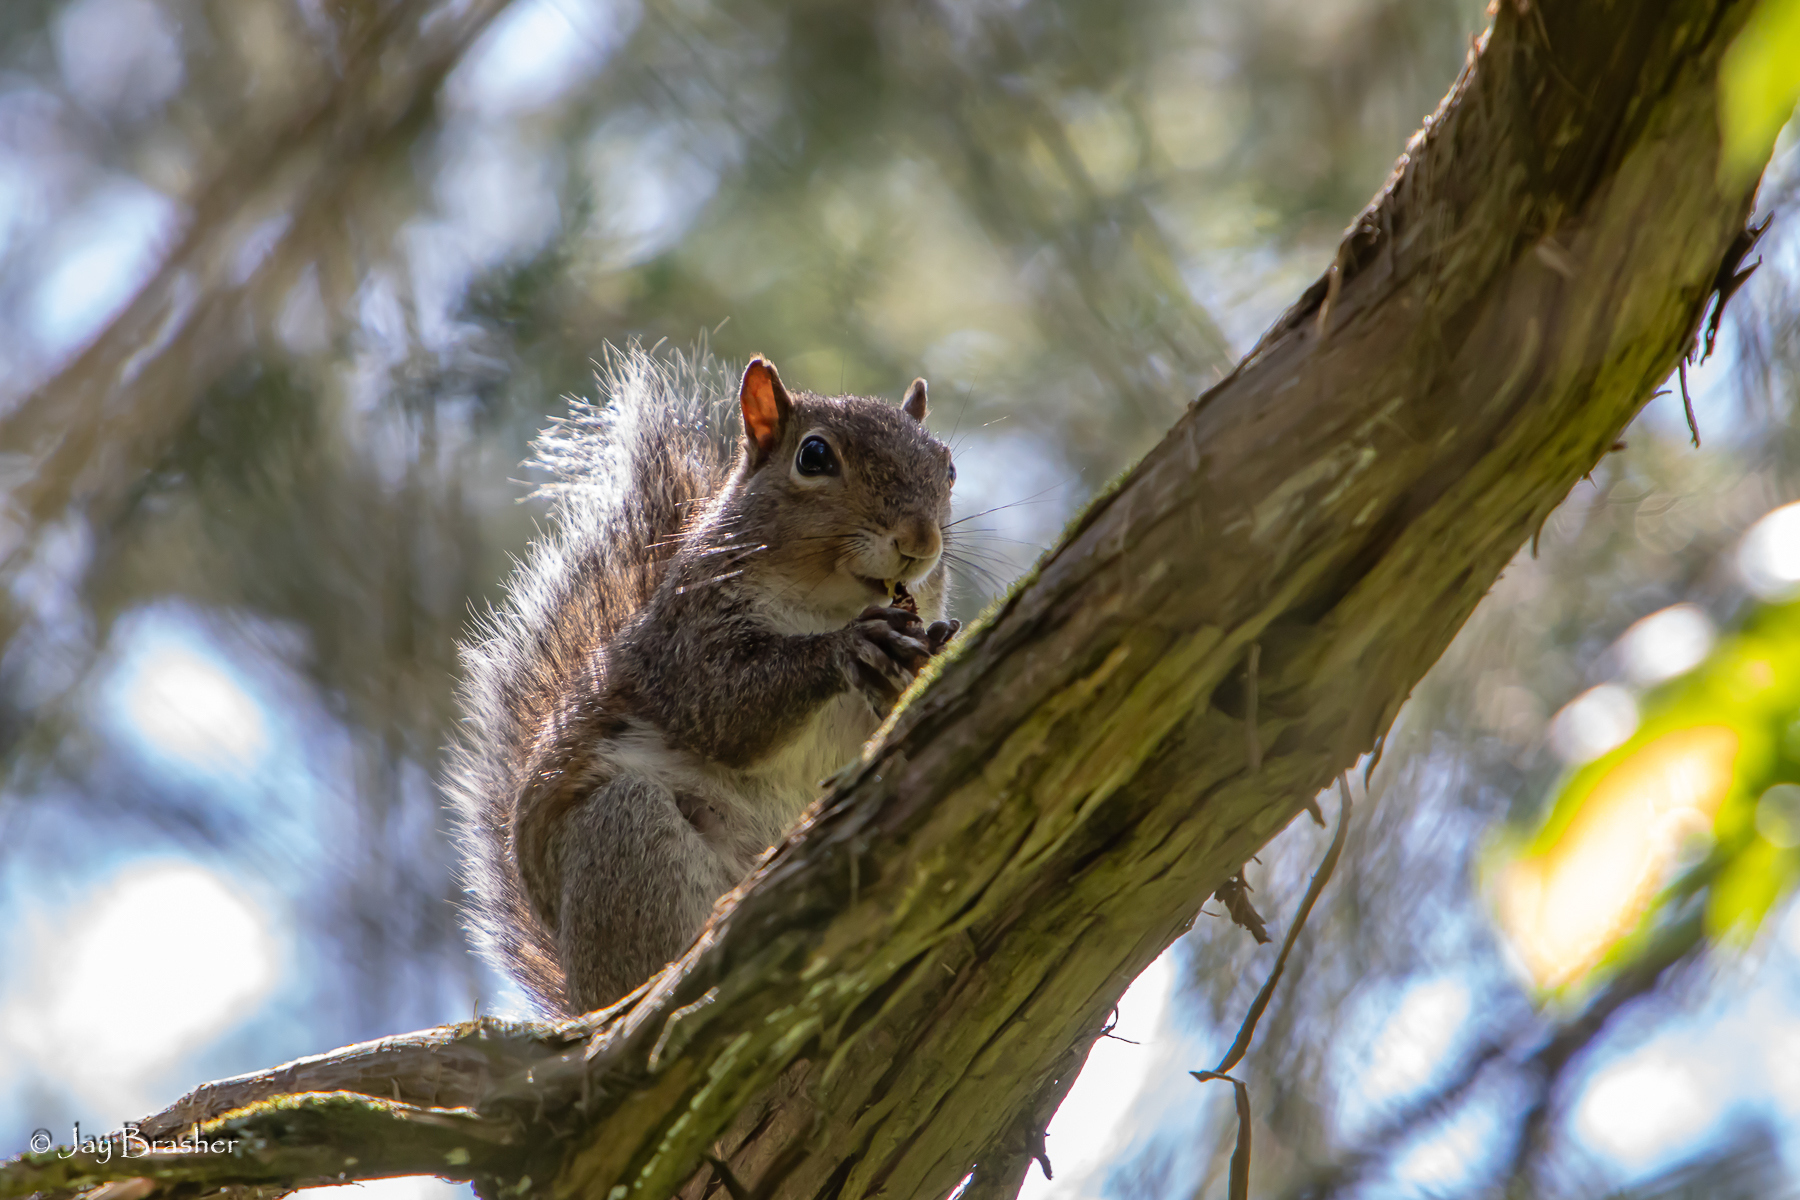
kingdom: Animalia
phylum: Chordata
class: Mammalia
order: Rodentia
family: Sciuridae
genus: Sciurus
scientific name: Sciurus carolinensis
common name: Eastern gray squirrel
